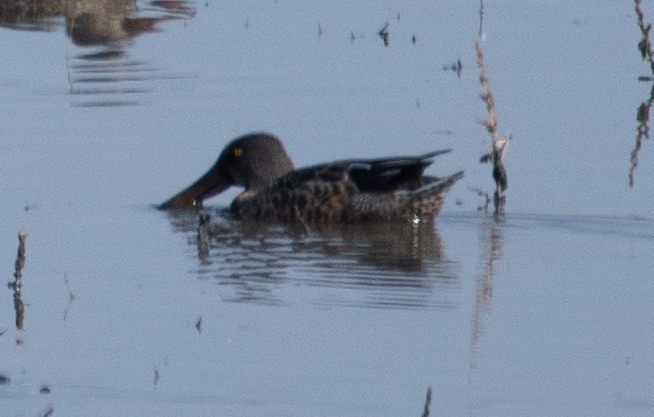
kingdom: Animalia
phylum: Chordata
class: Aves
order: Anseriformes
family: Anatidae
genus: Spatula
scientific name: Spatula clypeata
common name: Northern shoveler
